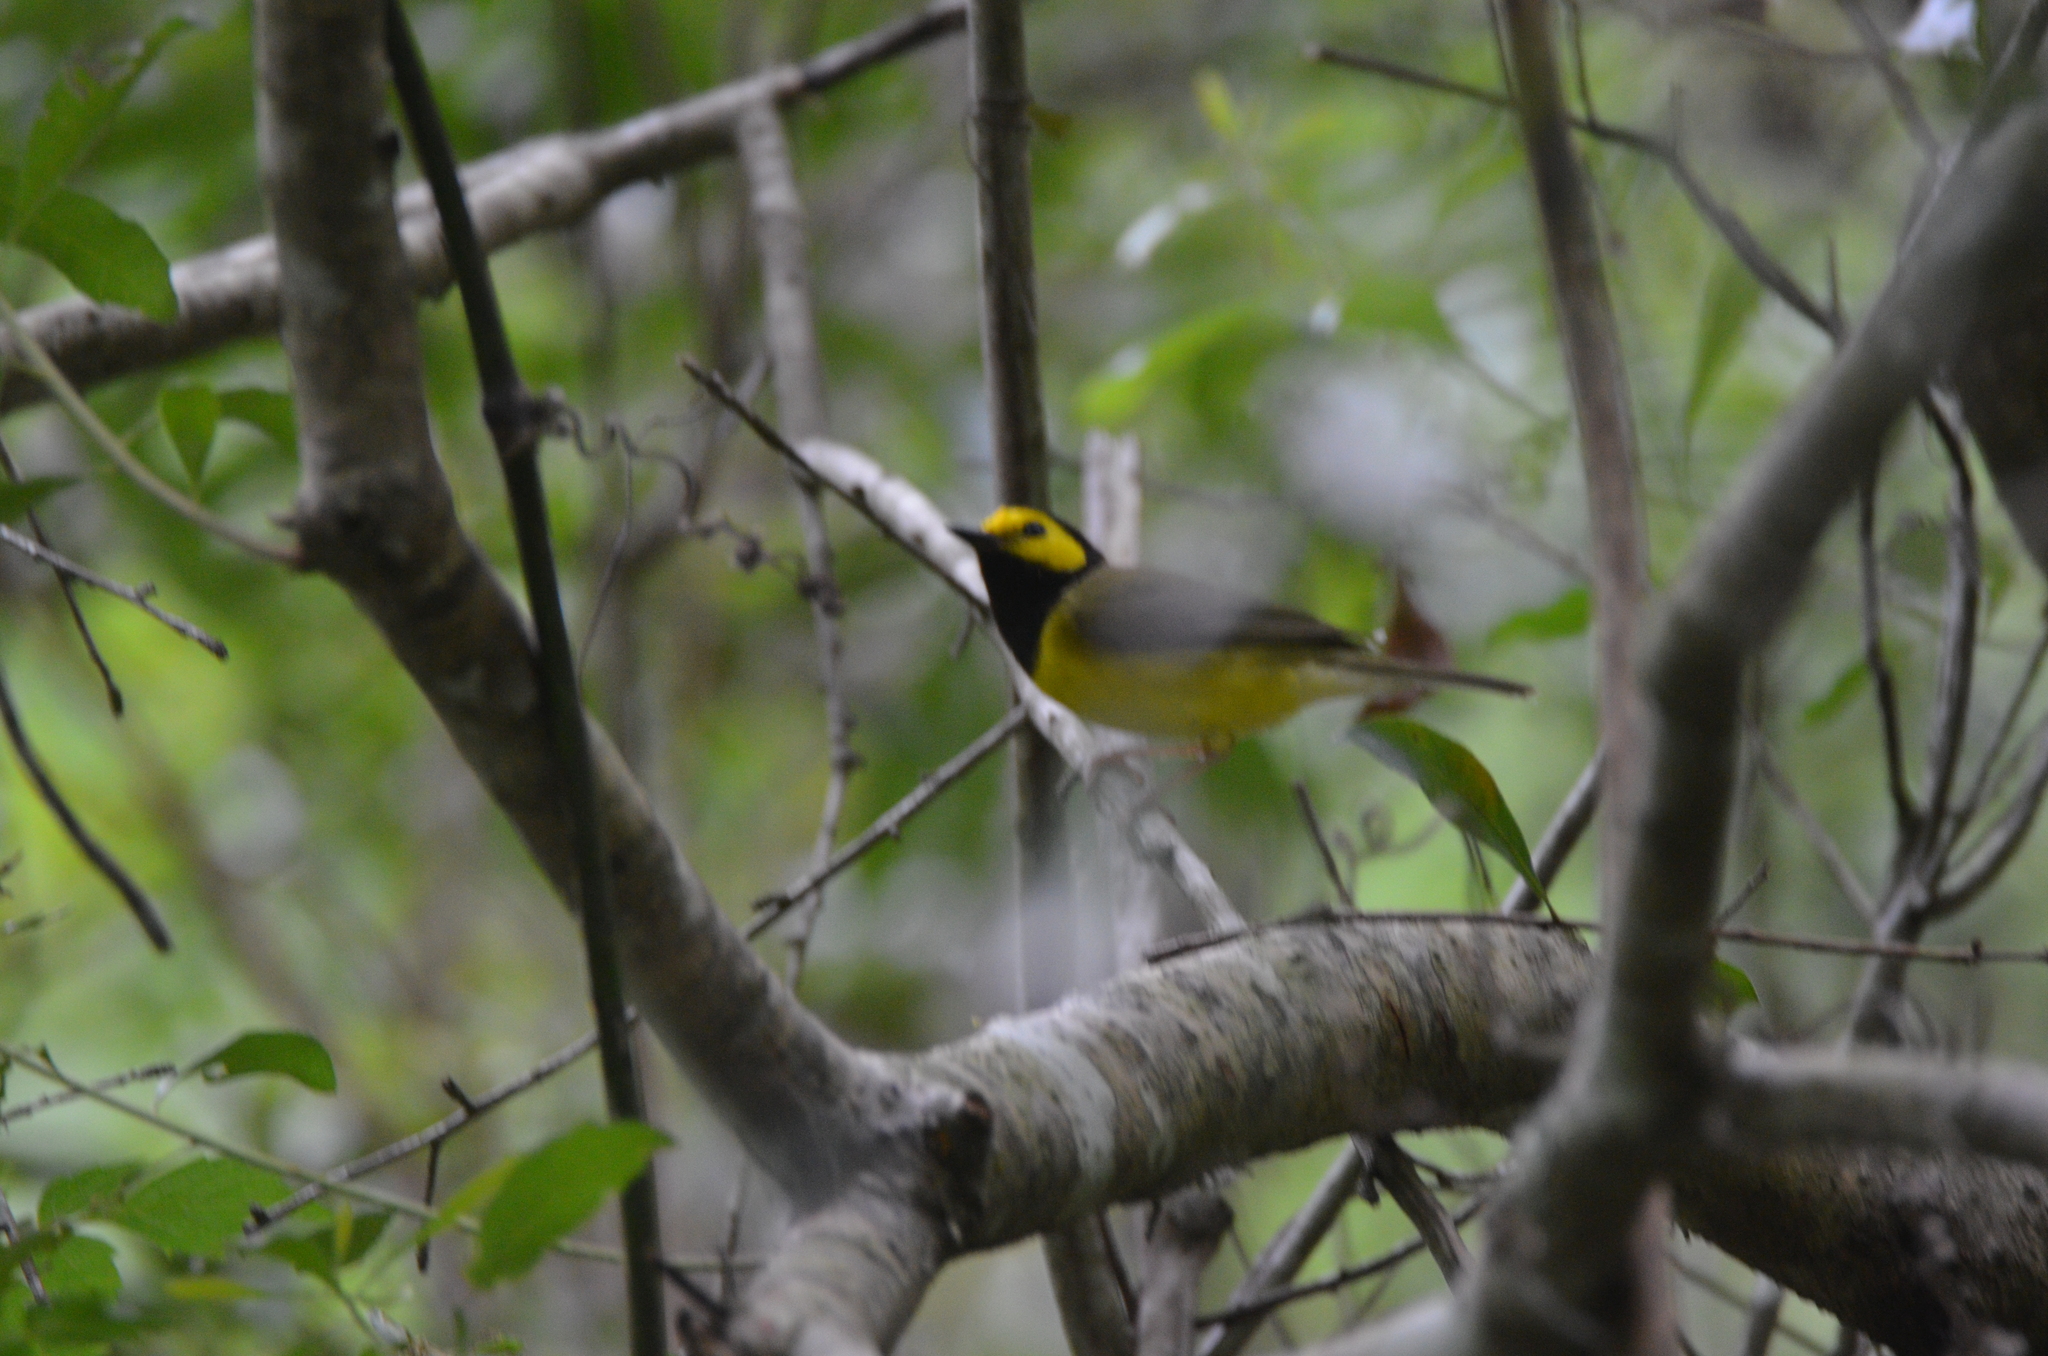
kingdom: Animalia
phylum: Chordata
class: Aves
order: Passeriformes
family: Parulidae
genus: Setophaga
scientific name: Setophaga citrina
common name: Hooded warbler
